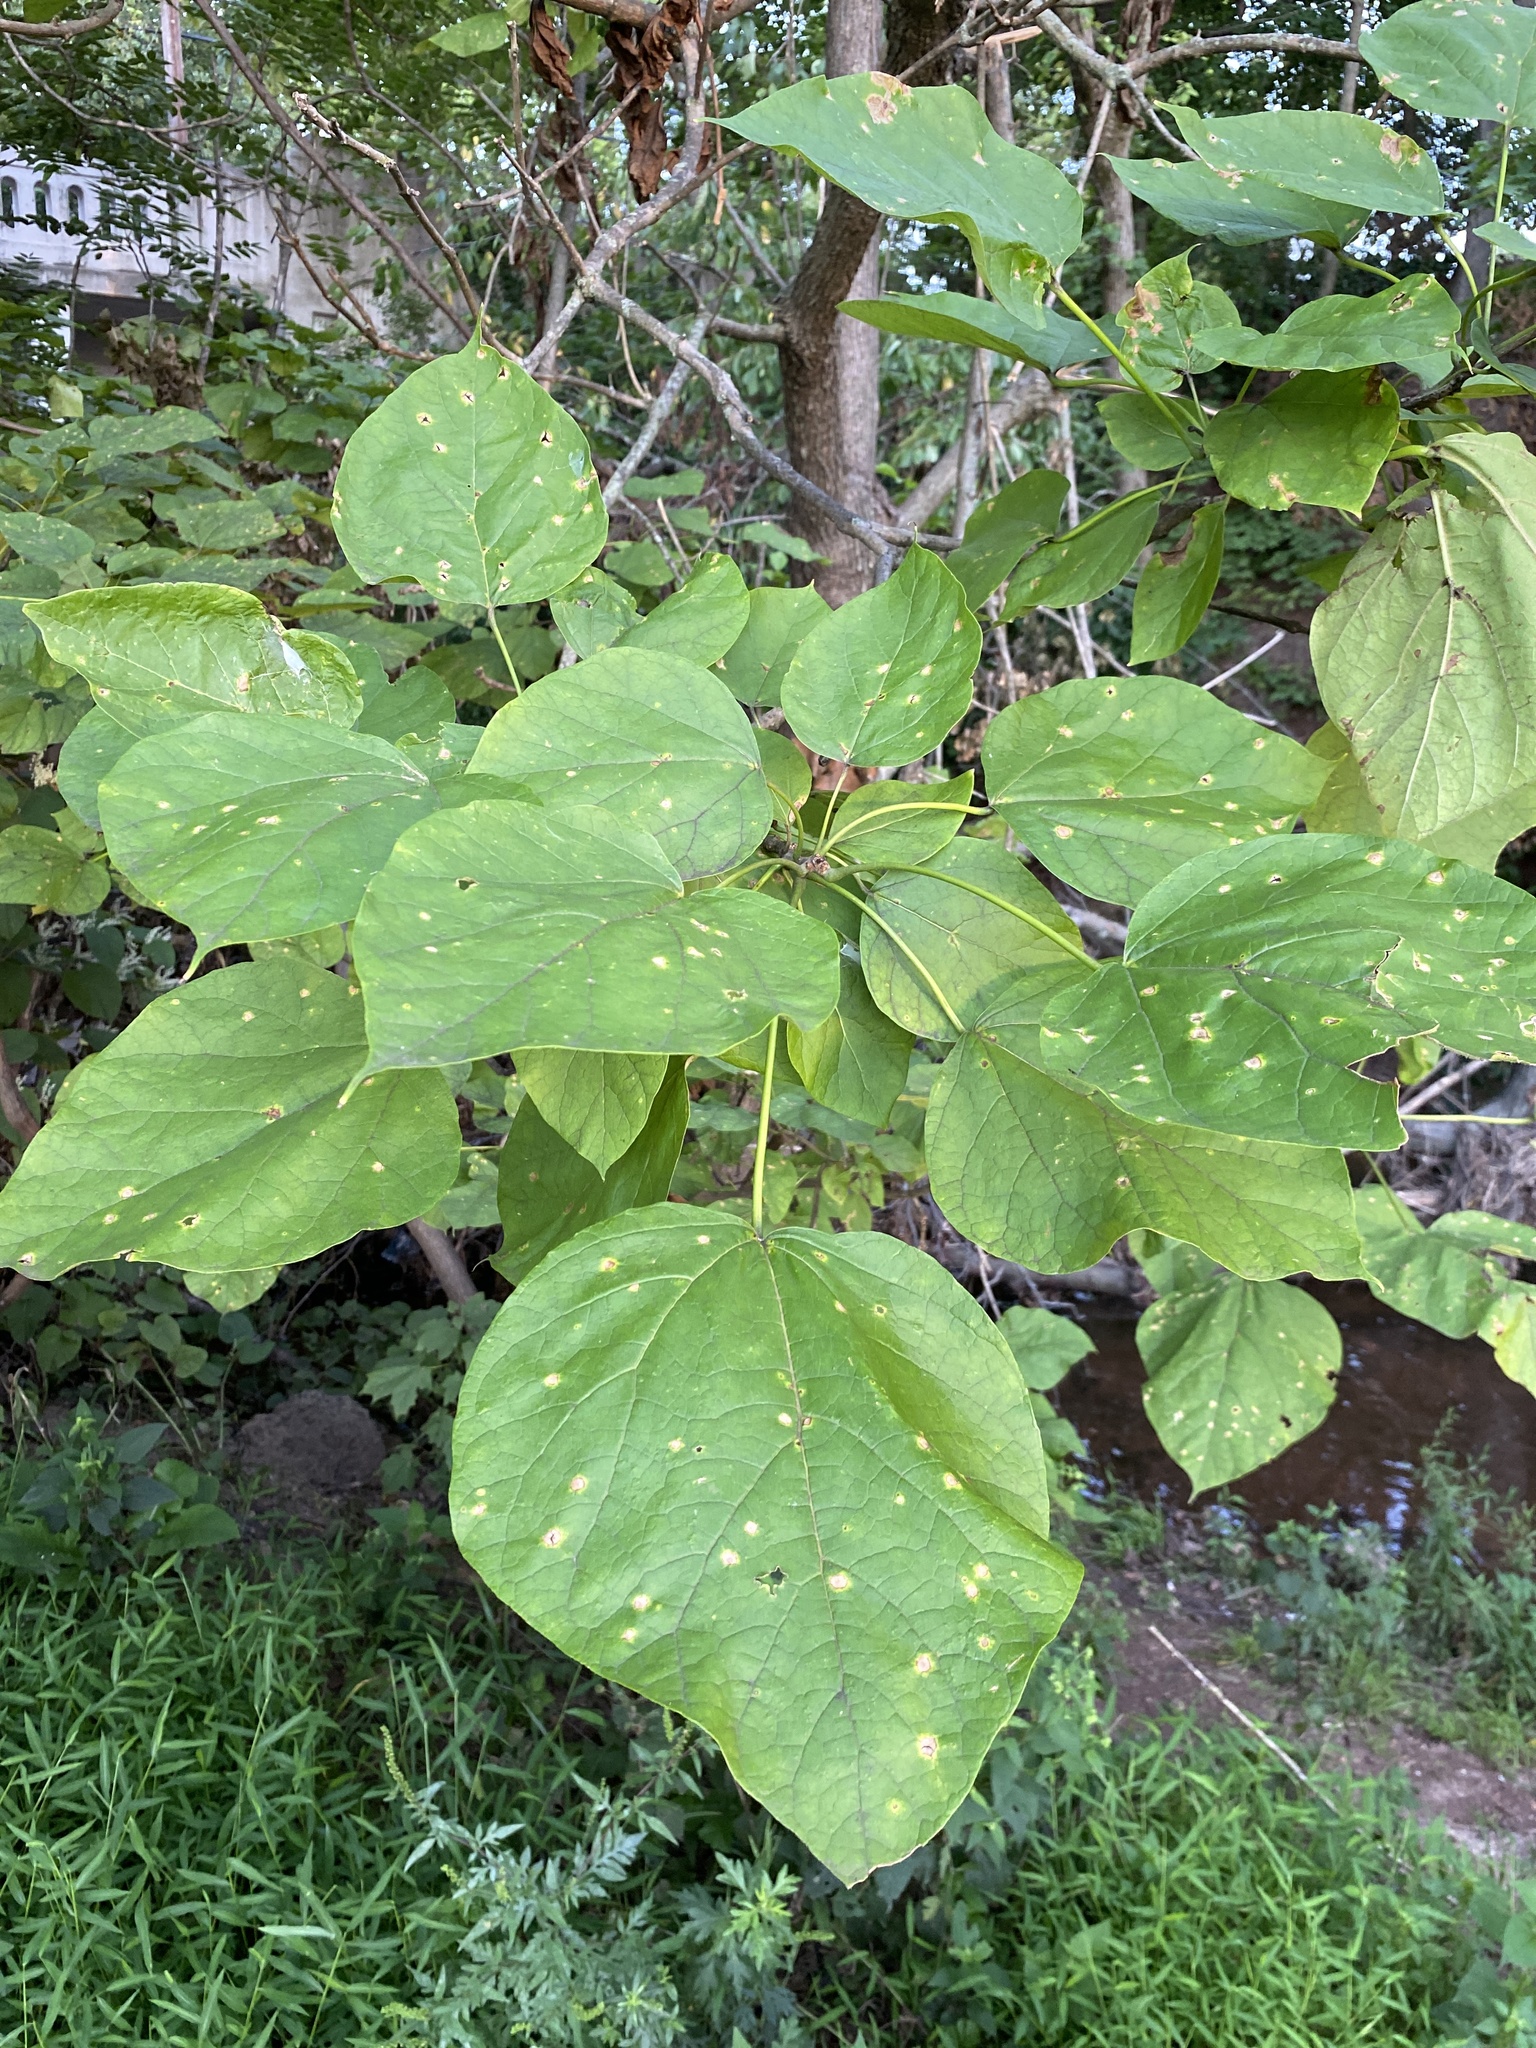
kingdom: Plantae
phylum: Tracheophyta
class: Magnoliopsida
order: Lamiales
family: Bignoniaceae
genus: Catalpa
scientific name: Catalpa speciosa
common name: Northern catalpa
